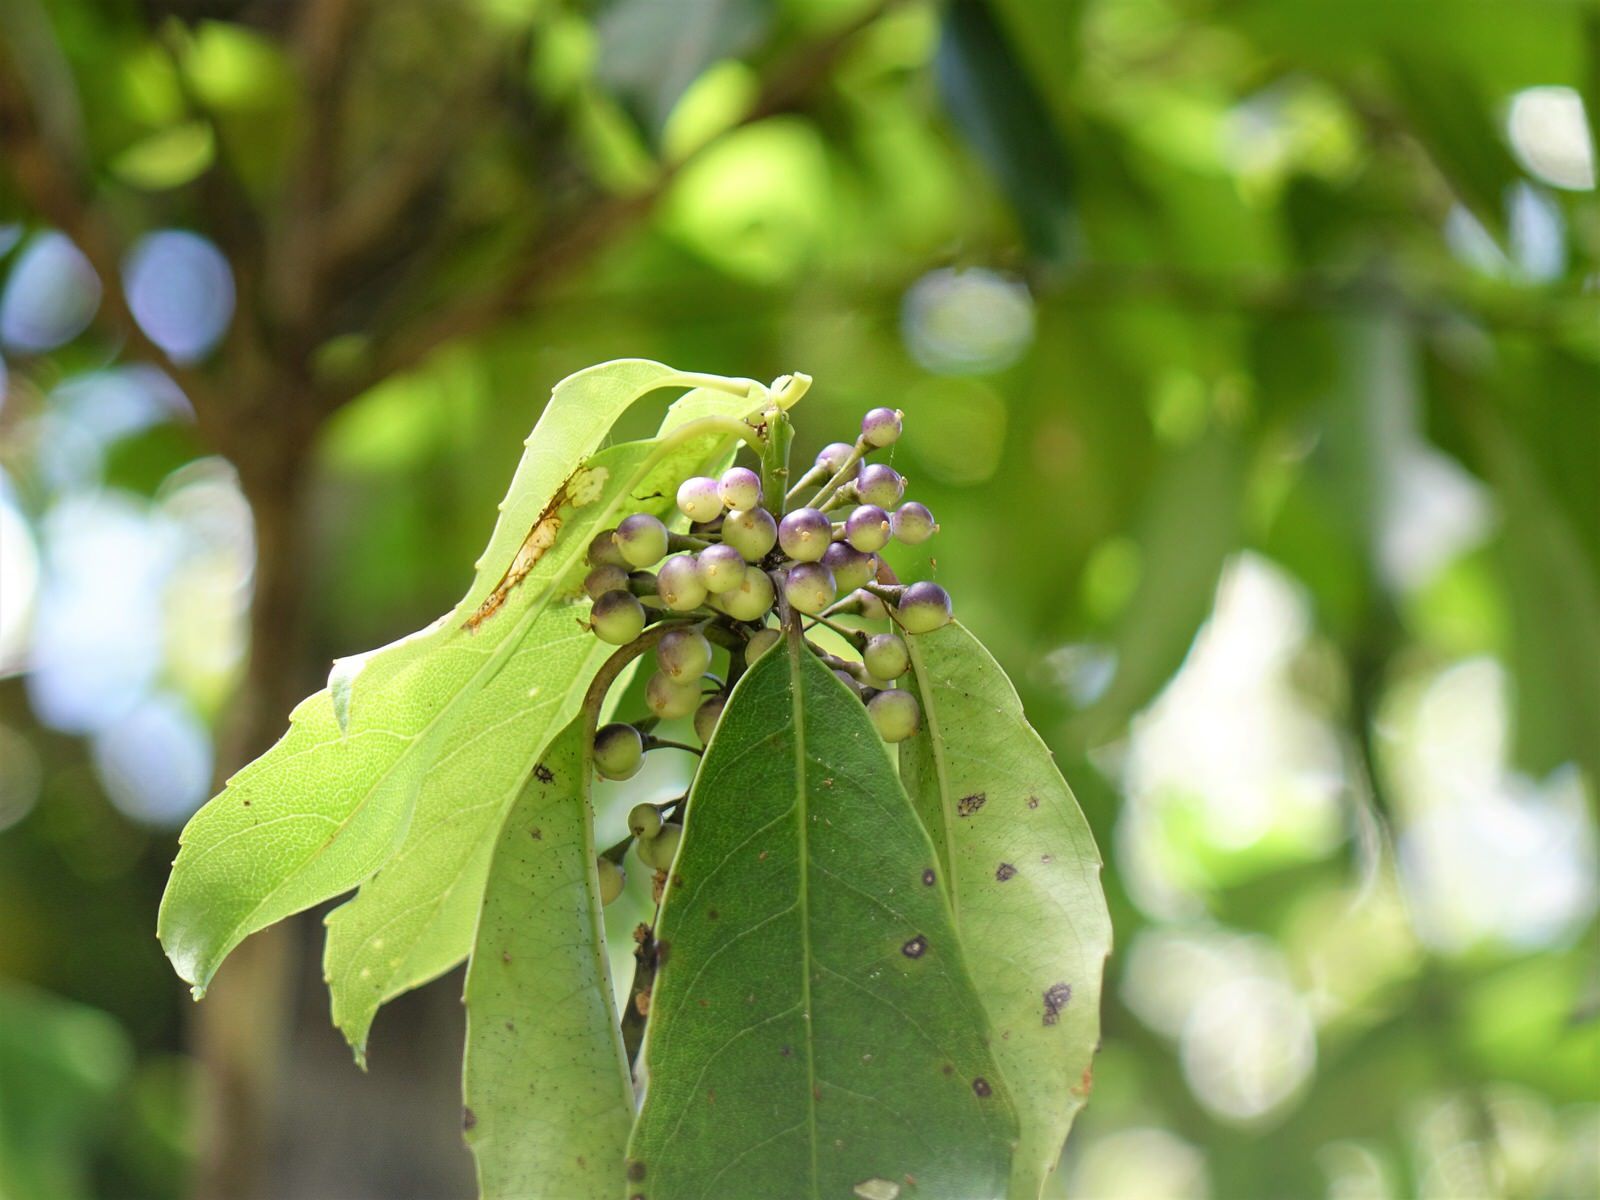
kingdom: Plantae
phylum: Tracheophyta
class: Magnoliopsida
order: Malpighiales
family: Violaceae
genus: Melicytus
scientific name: Melicytus macrophyllus
